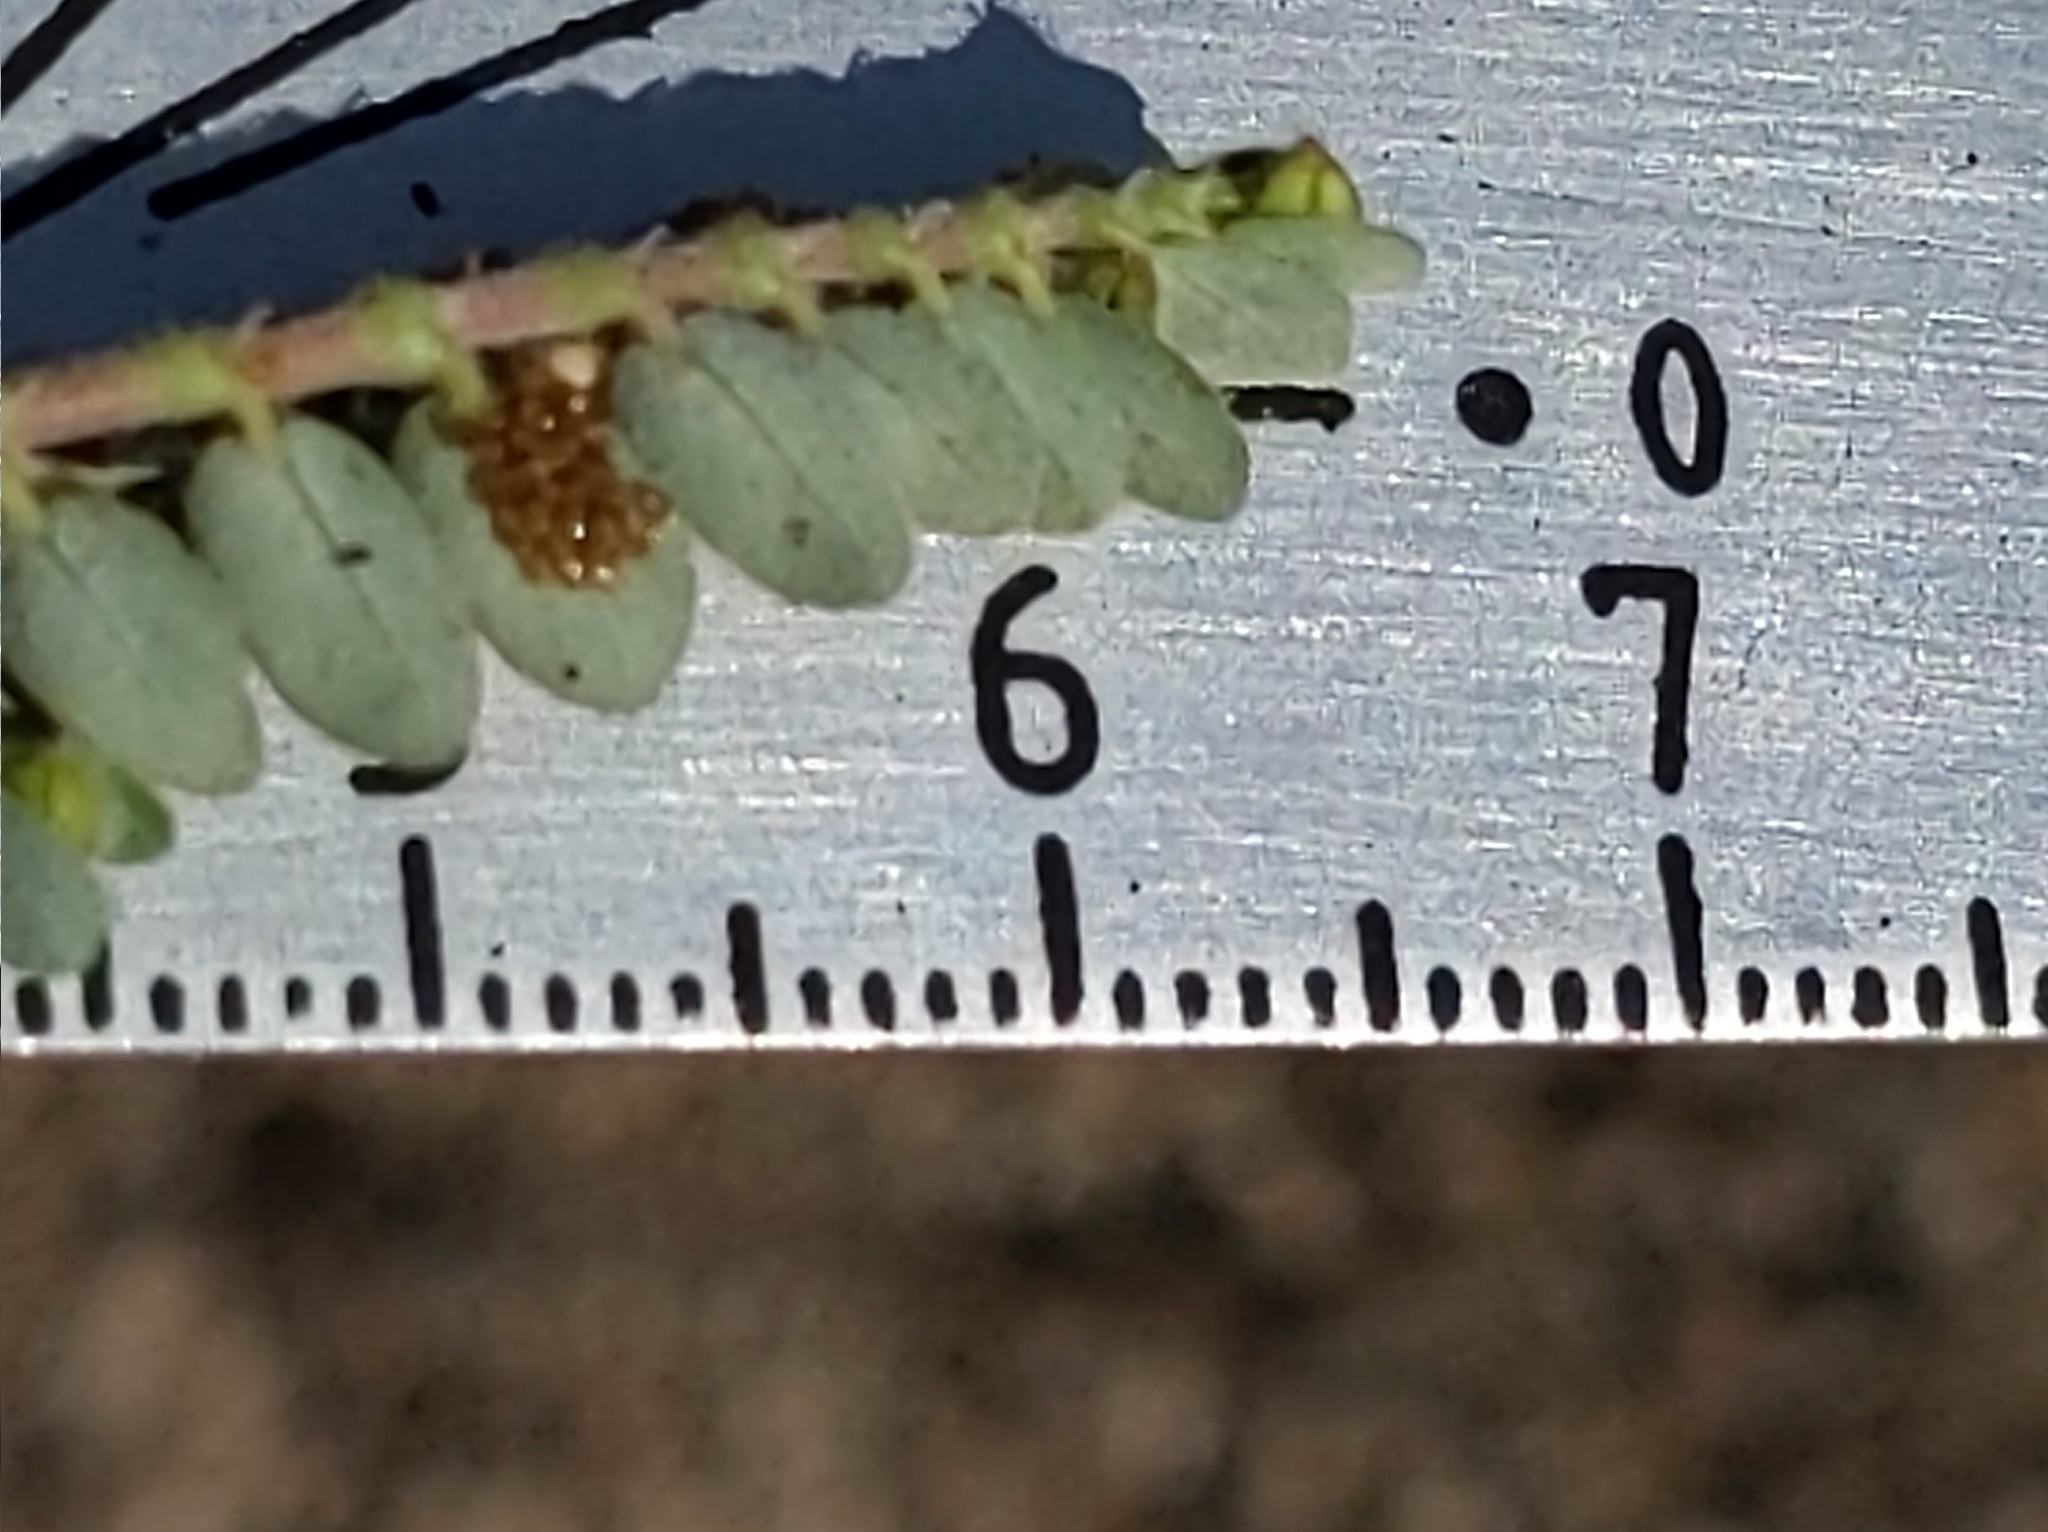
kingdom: Plantae
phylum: Tracheophyta
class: Magnoliopsida
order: Malpighiales
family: Euphorbiaceae
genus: Euphorbia
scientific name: Euphorbia prostrata
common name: Prostrate sandmat
